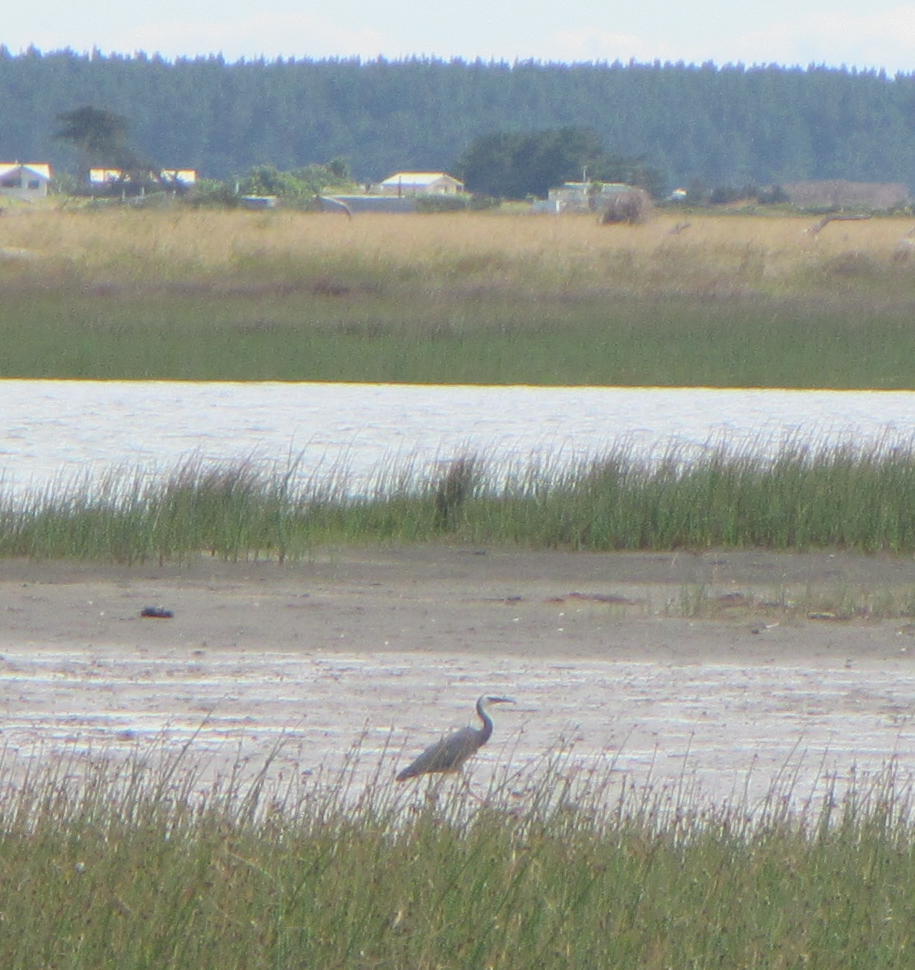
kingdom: Animalia
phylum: Chordata
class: Aves
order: Pelecaniformes
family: Ardeidae
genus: Egretta
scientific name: Egretta novaehollandiae
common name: White-faced heron
